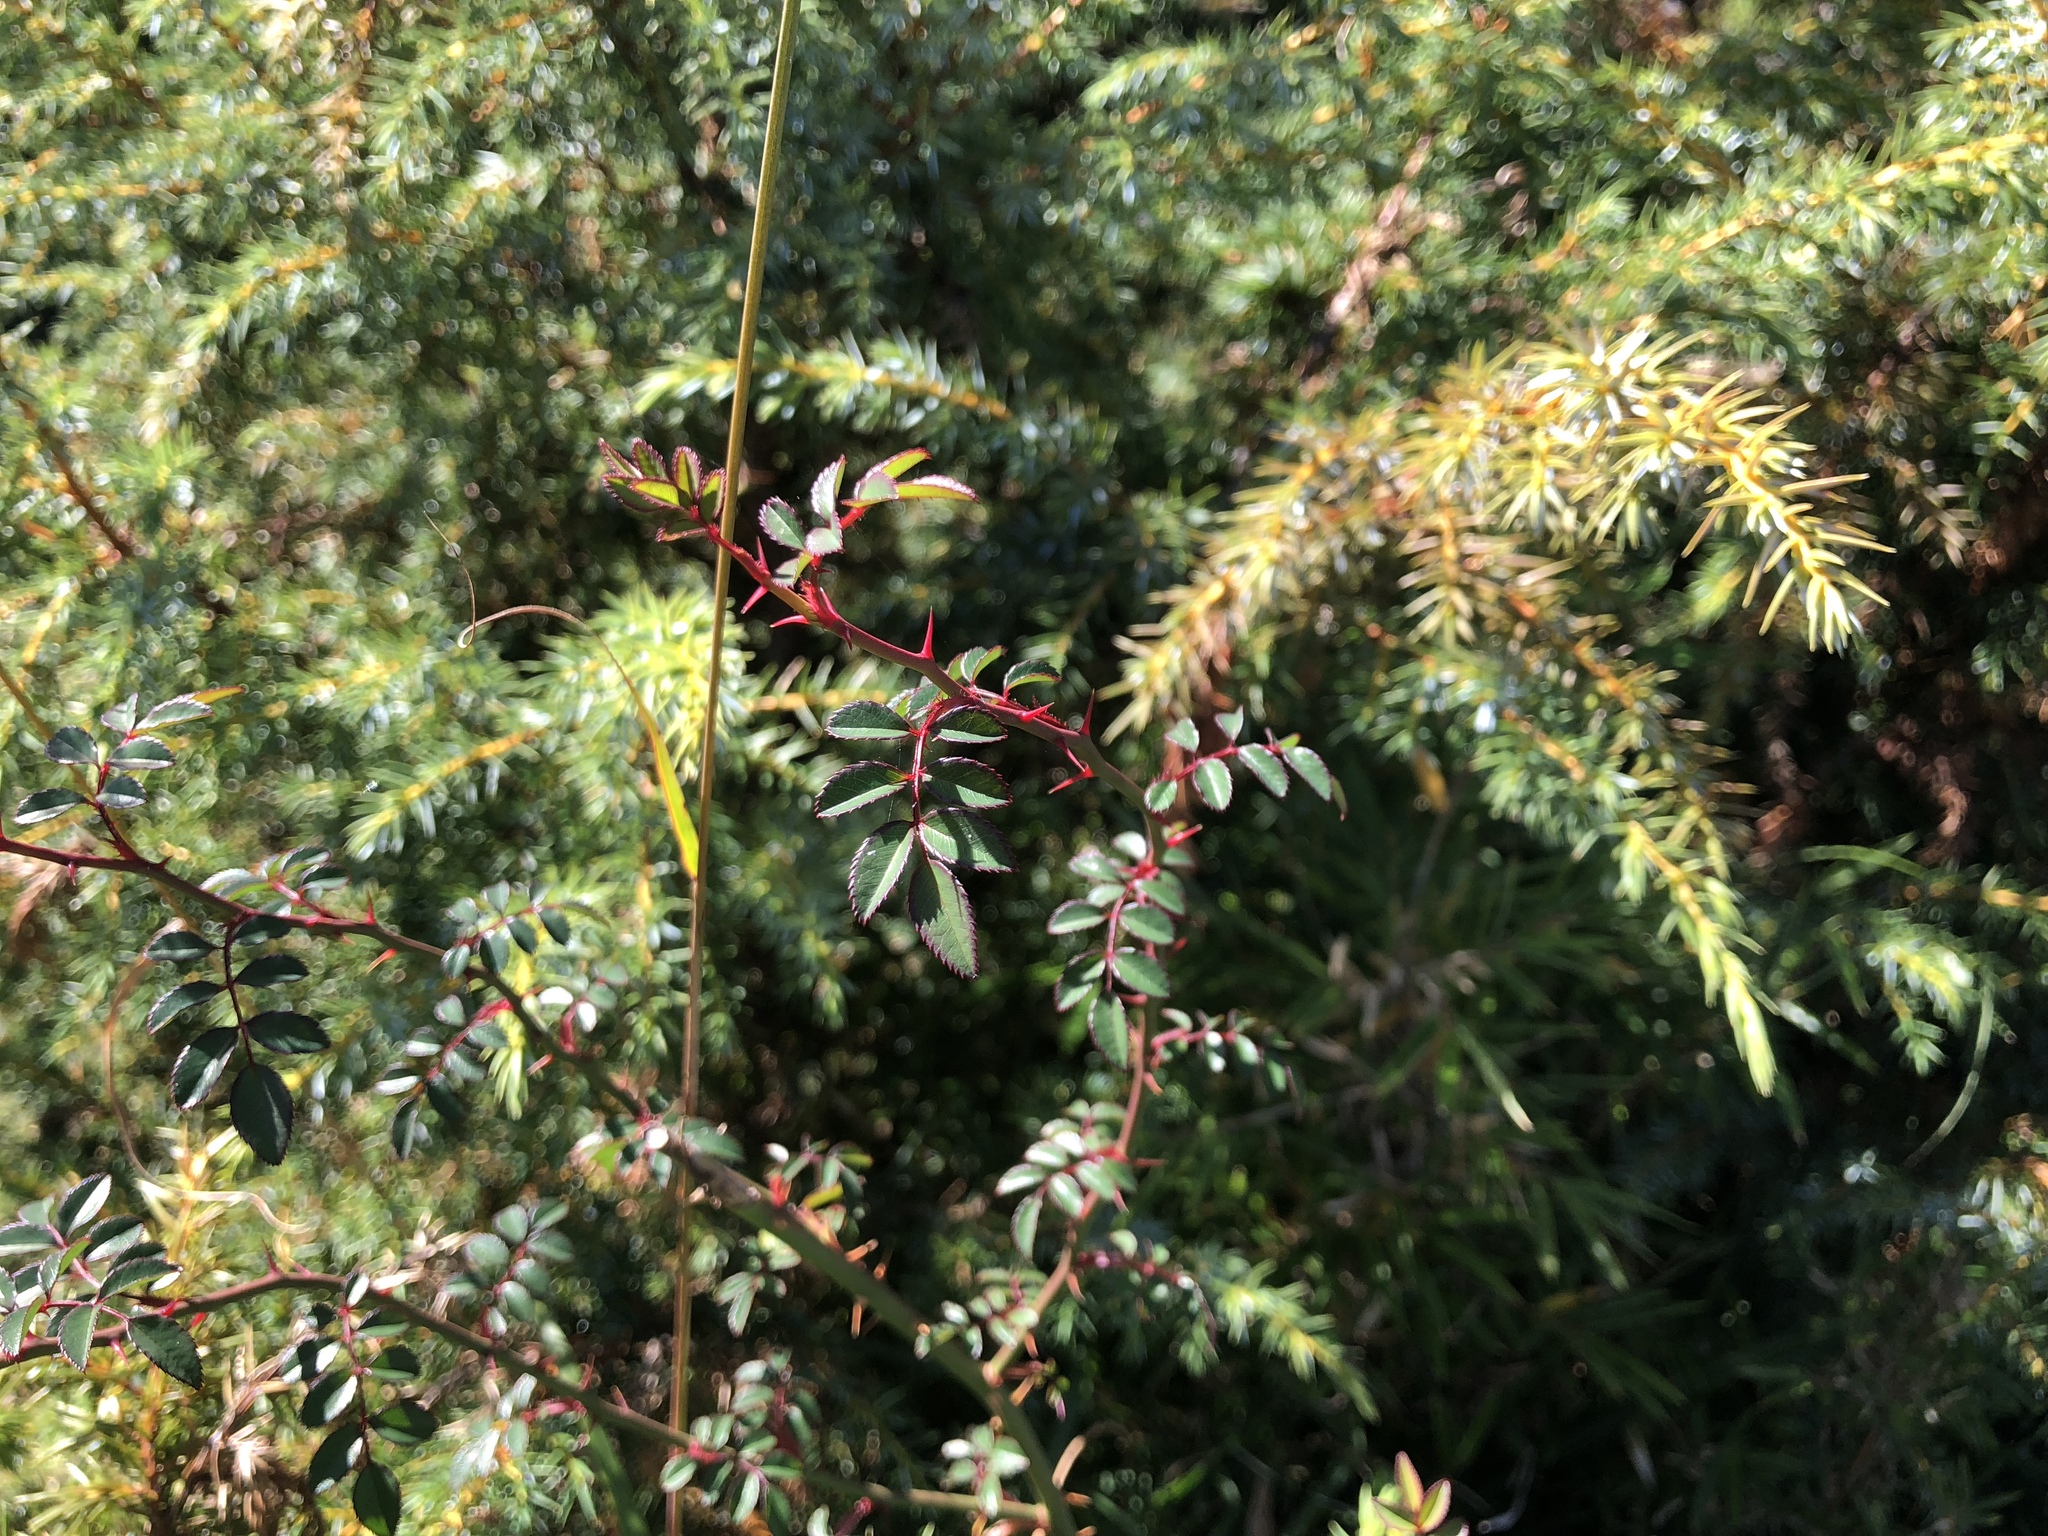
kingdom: Plantae
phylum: Tracheophyta
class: Magnoliopsida
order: Rosales
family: Rosaceae
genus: Rosa
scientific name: Rosa transmorrisonensis
